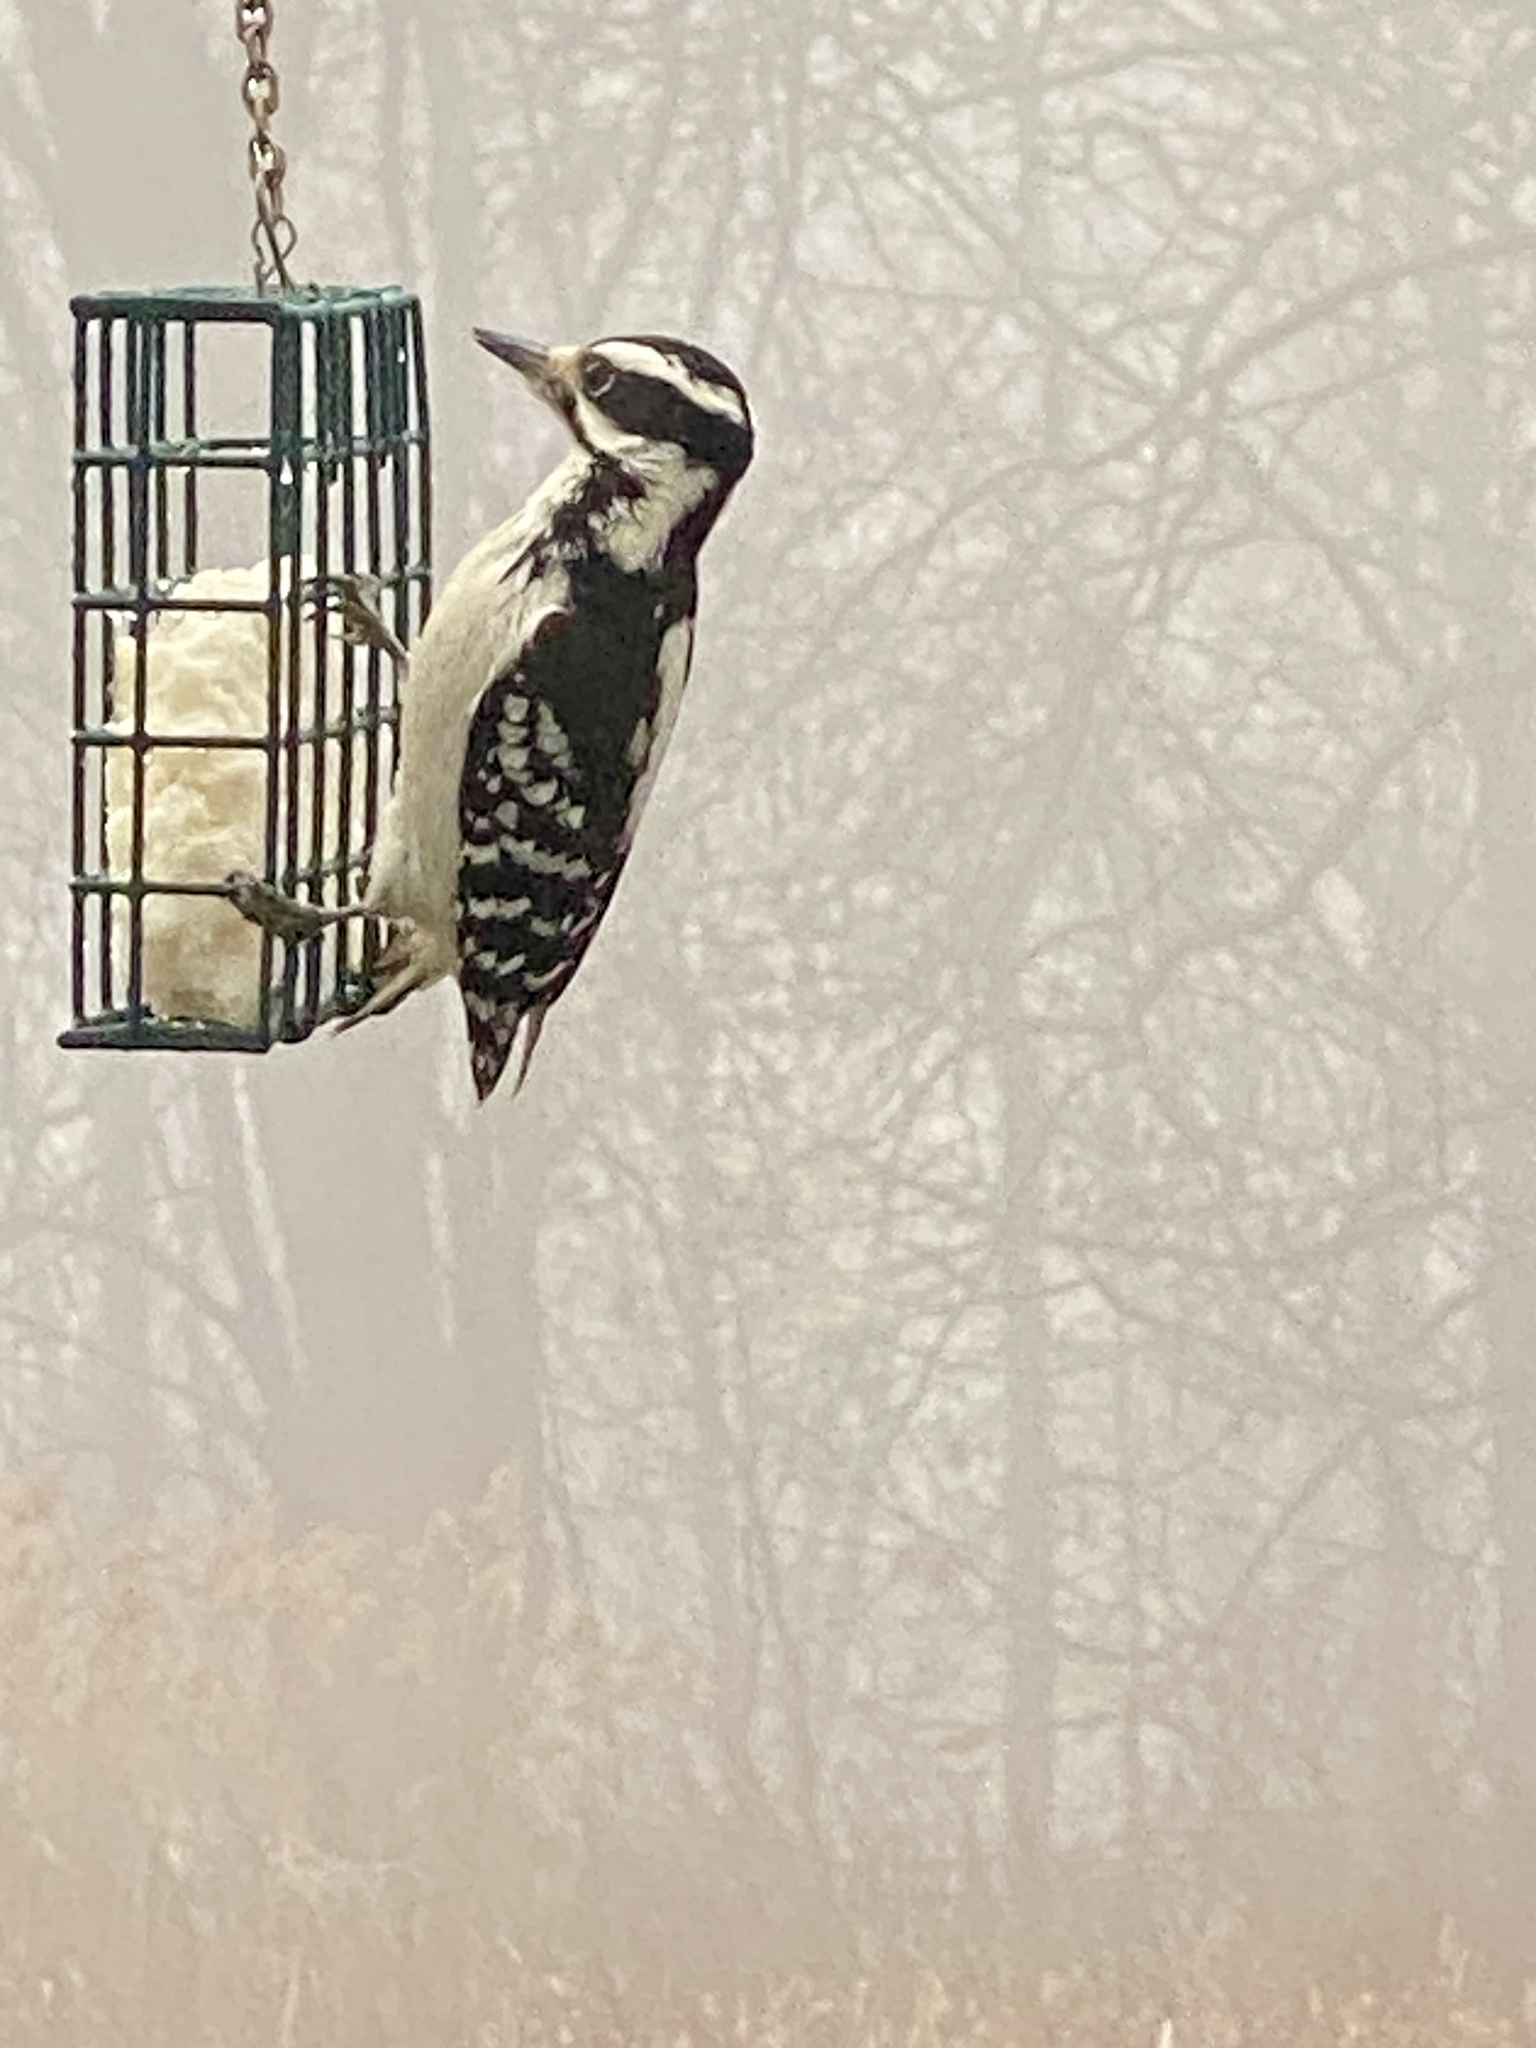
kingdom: Animalia
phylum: Chordata
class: Aves
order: Piciformes
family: Picidae
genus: Dryobates
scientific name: Dryobates pubescens
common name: Downy woodpecker
